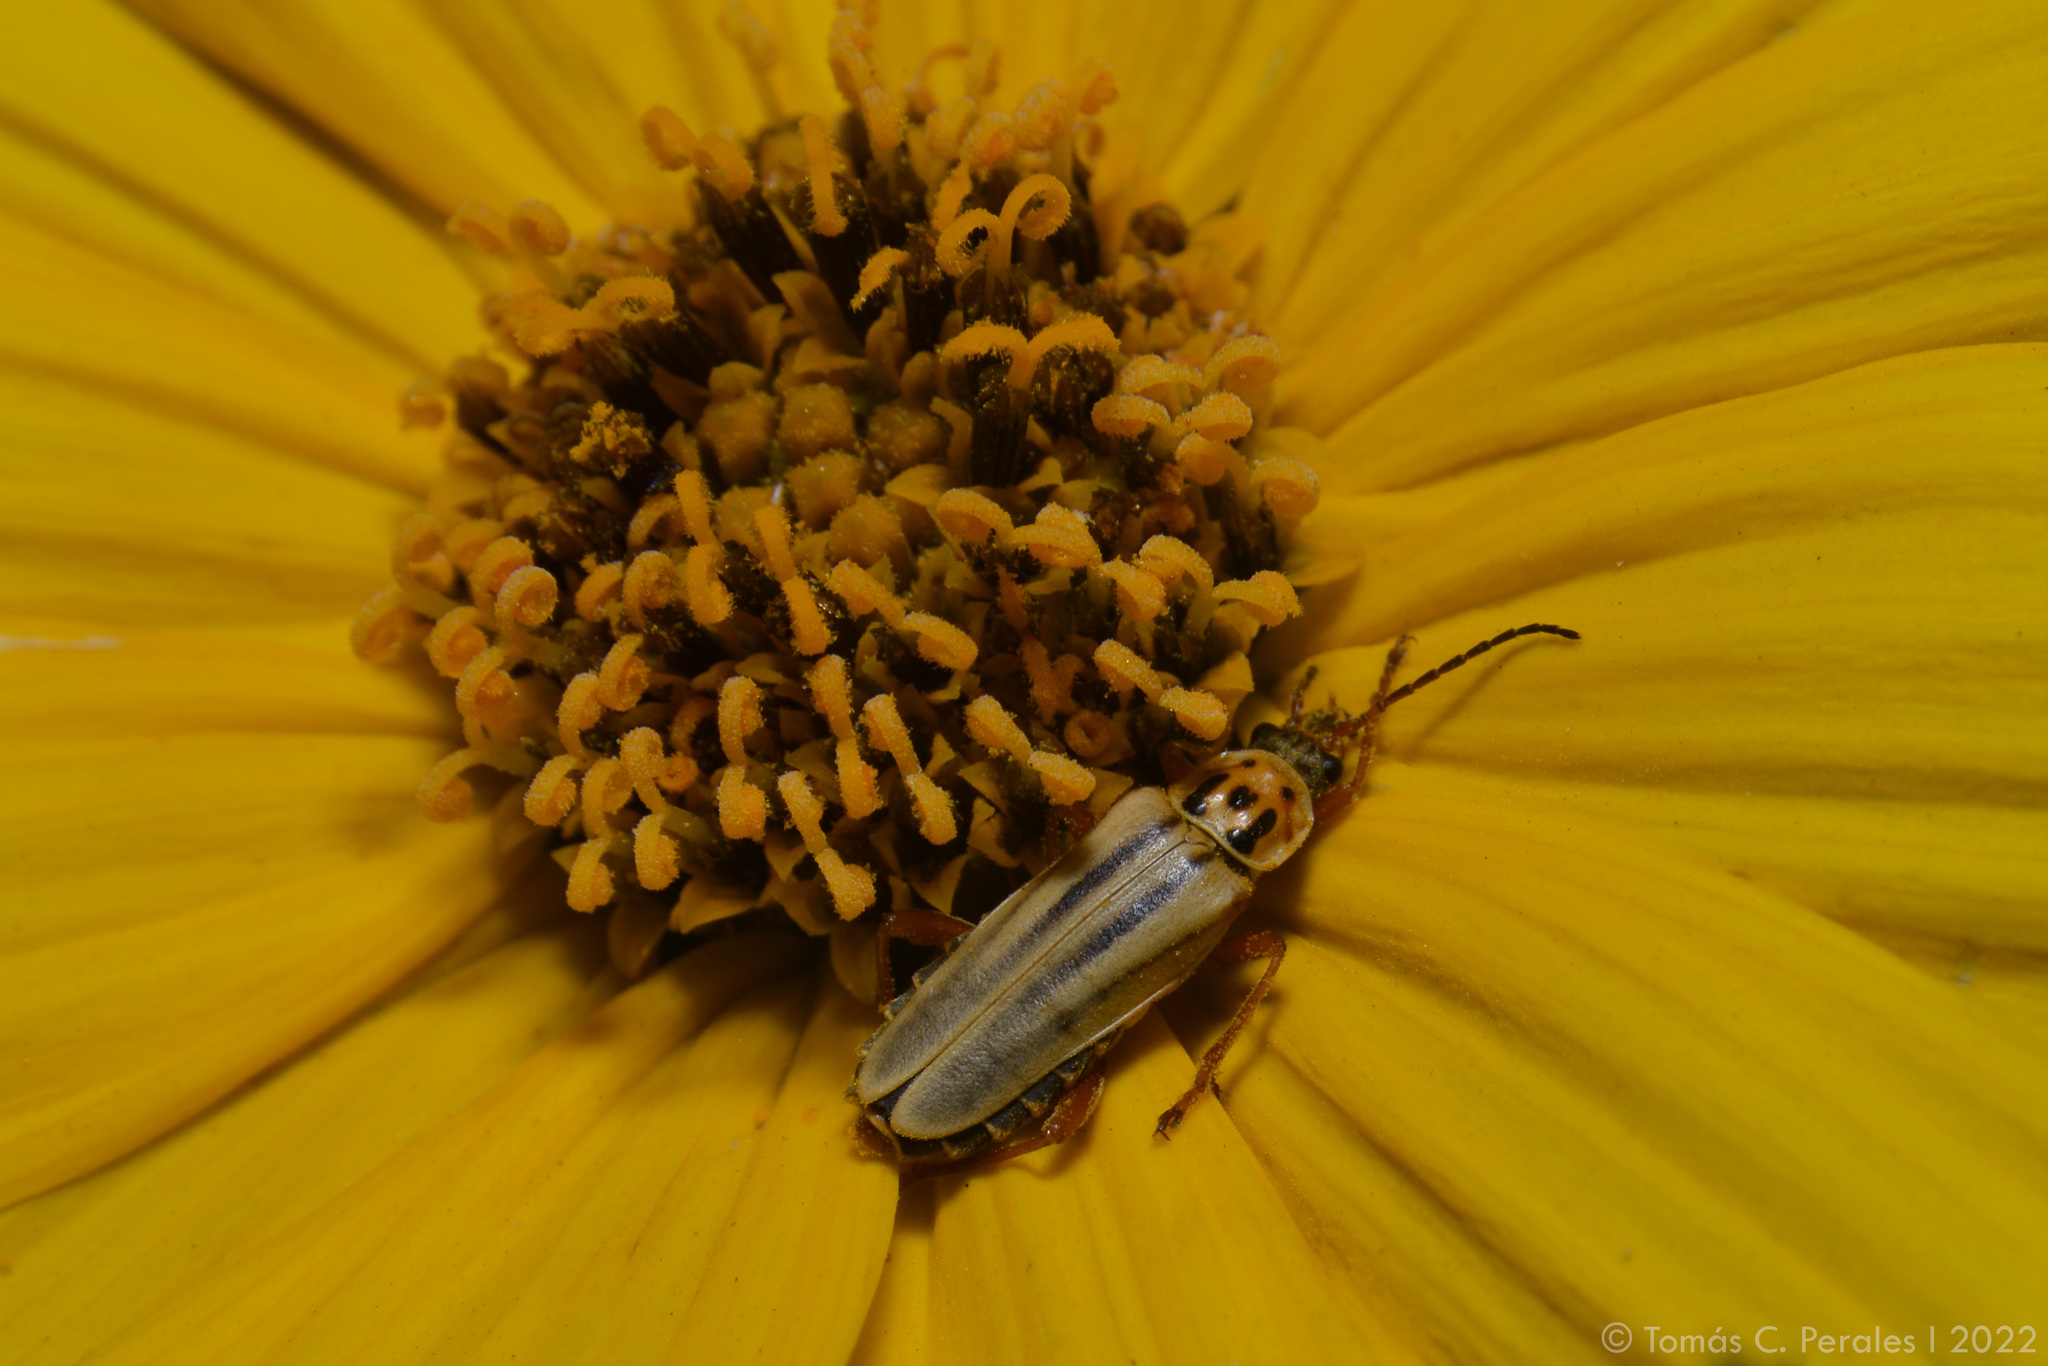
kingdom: Animalia
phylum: Arthropoda
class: Insecta
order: Coleoptera
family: Cantharidae
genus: Chauliognathus
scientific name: Chauliognathus
